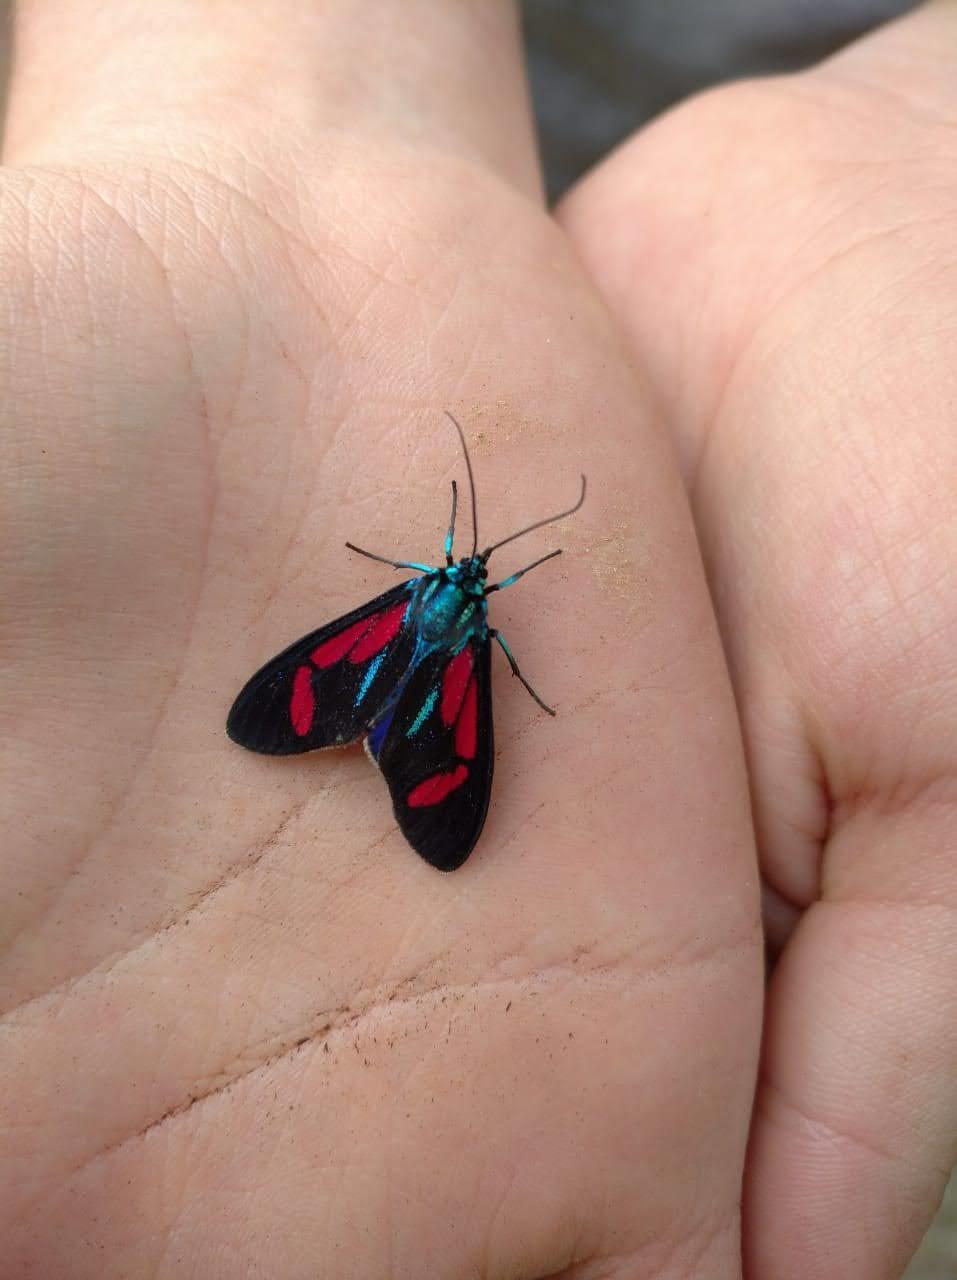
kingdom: Animalia
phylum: Arthropoda
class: Insecta
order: Lepidoptera
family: Erebidae
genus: Cyanopepla
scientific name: Cyanopepla pretiosa
